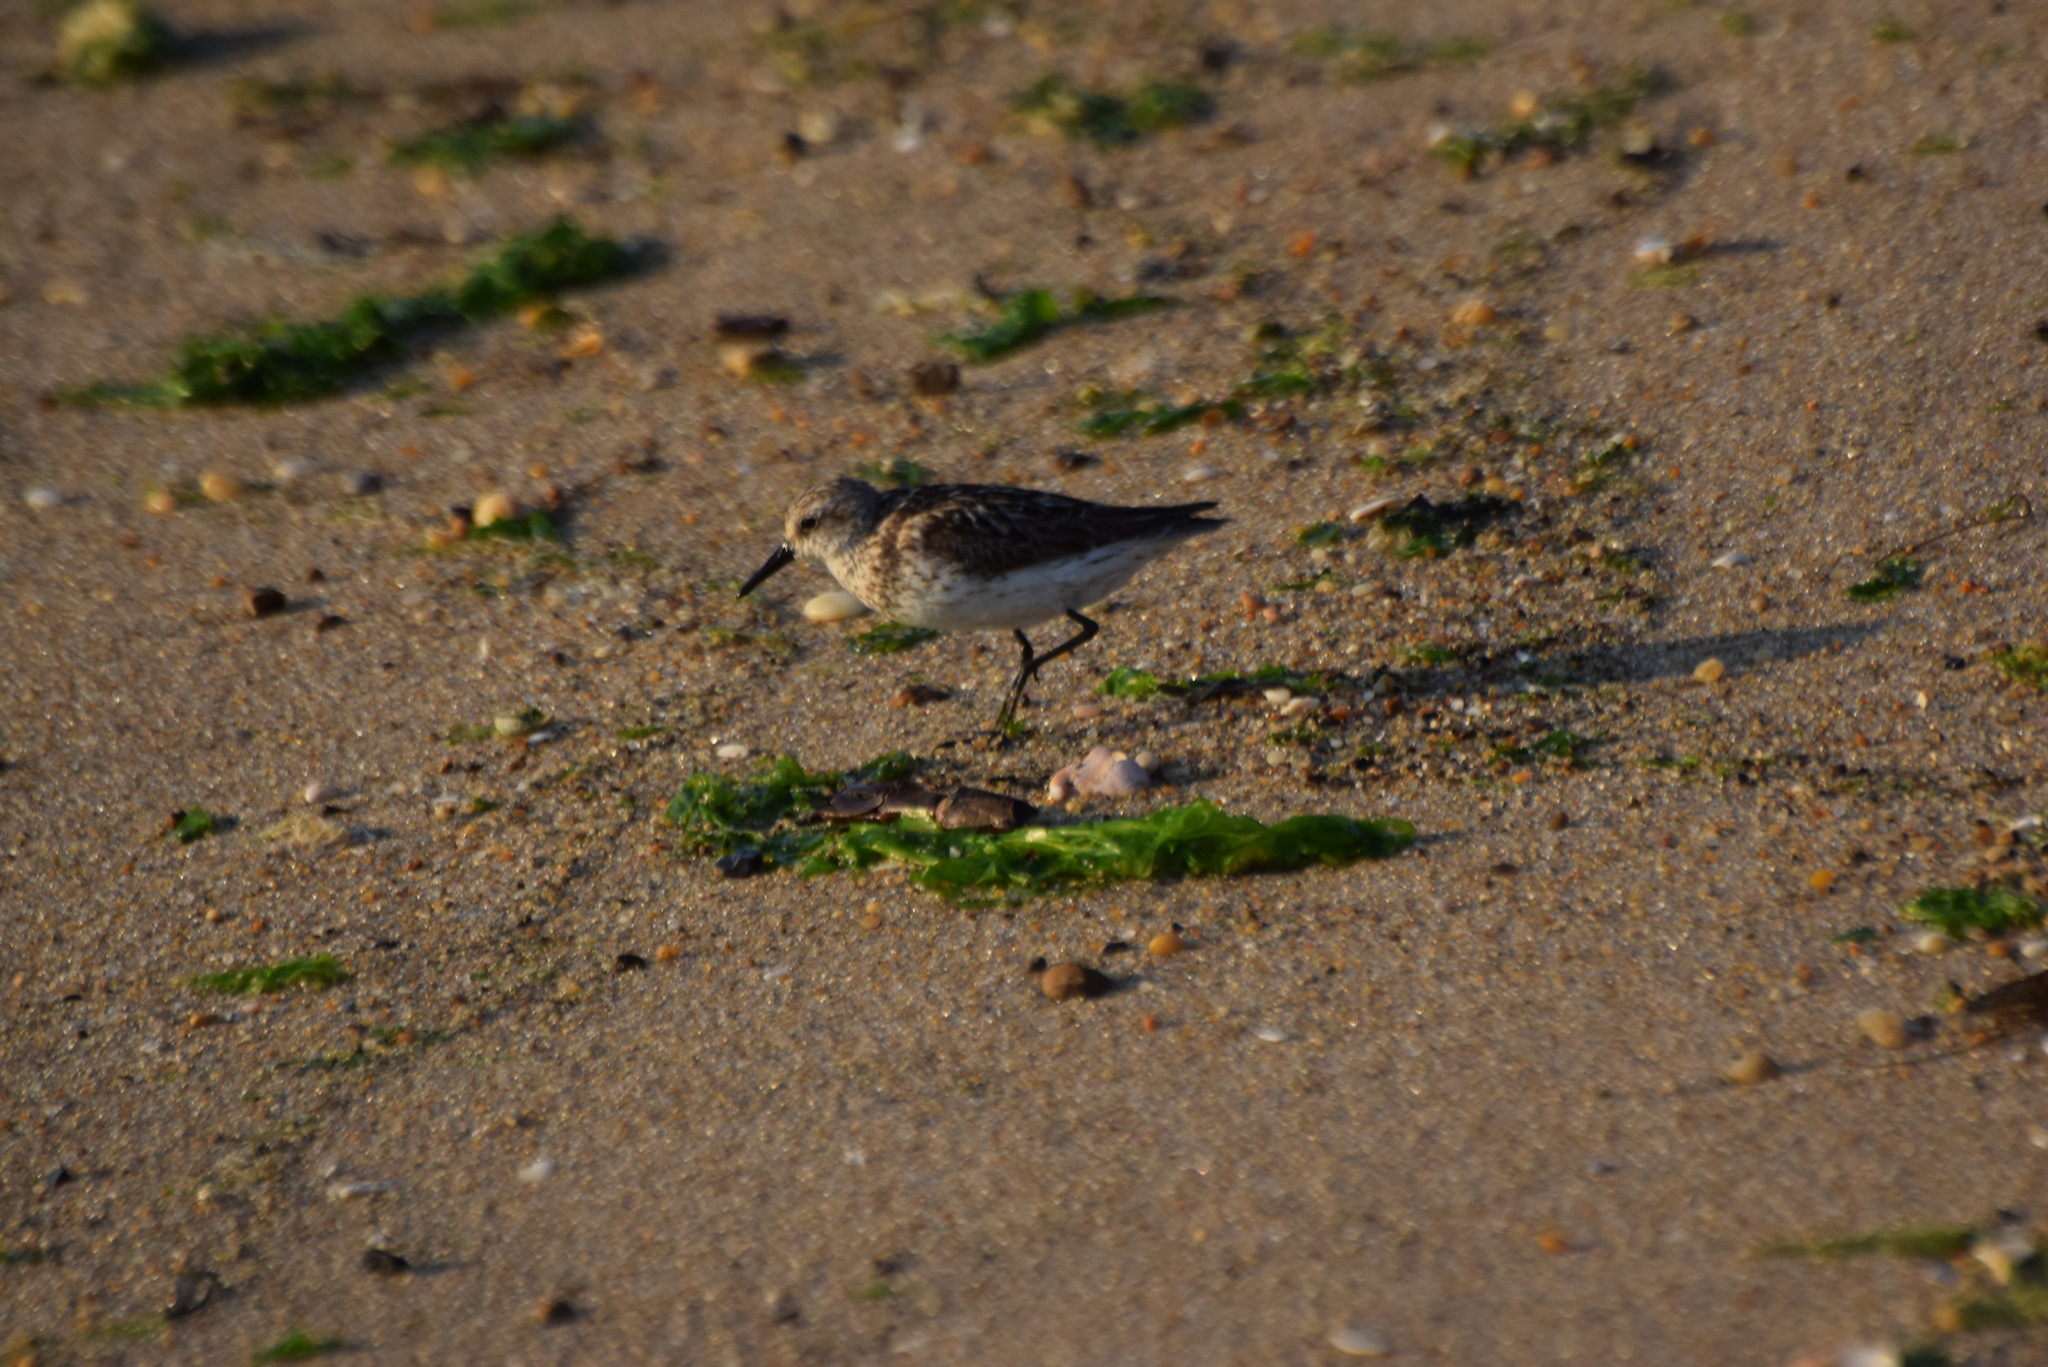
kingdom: Animalia
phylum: Chordata
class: Aves
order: Charadriiformes
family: Scolopacidae
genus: Calidris
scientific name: Calidris pusilla
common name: Semipalmated sandpiper
